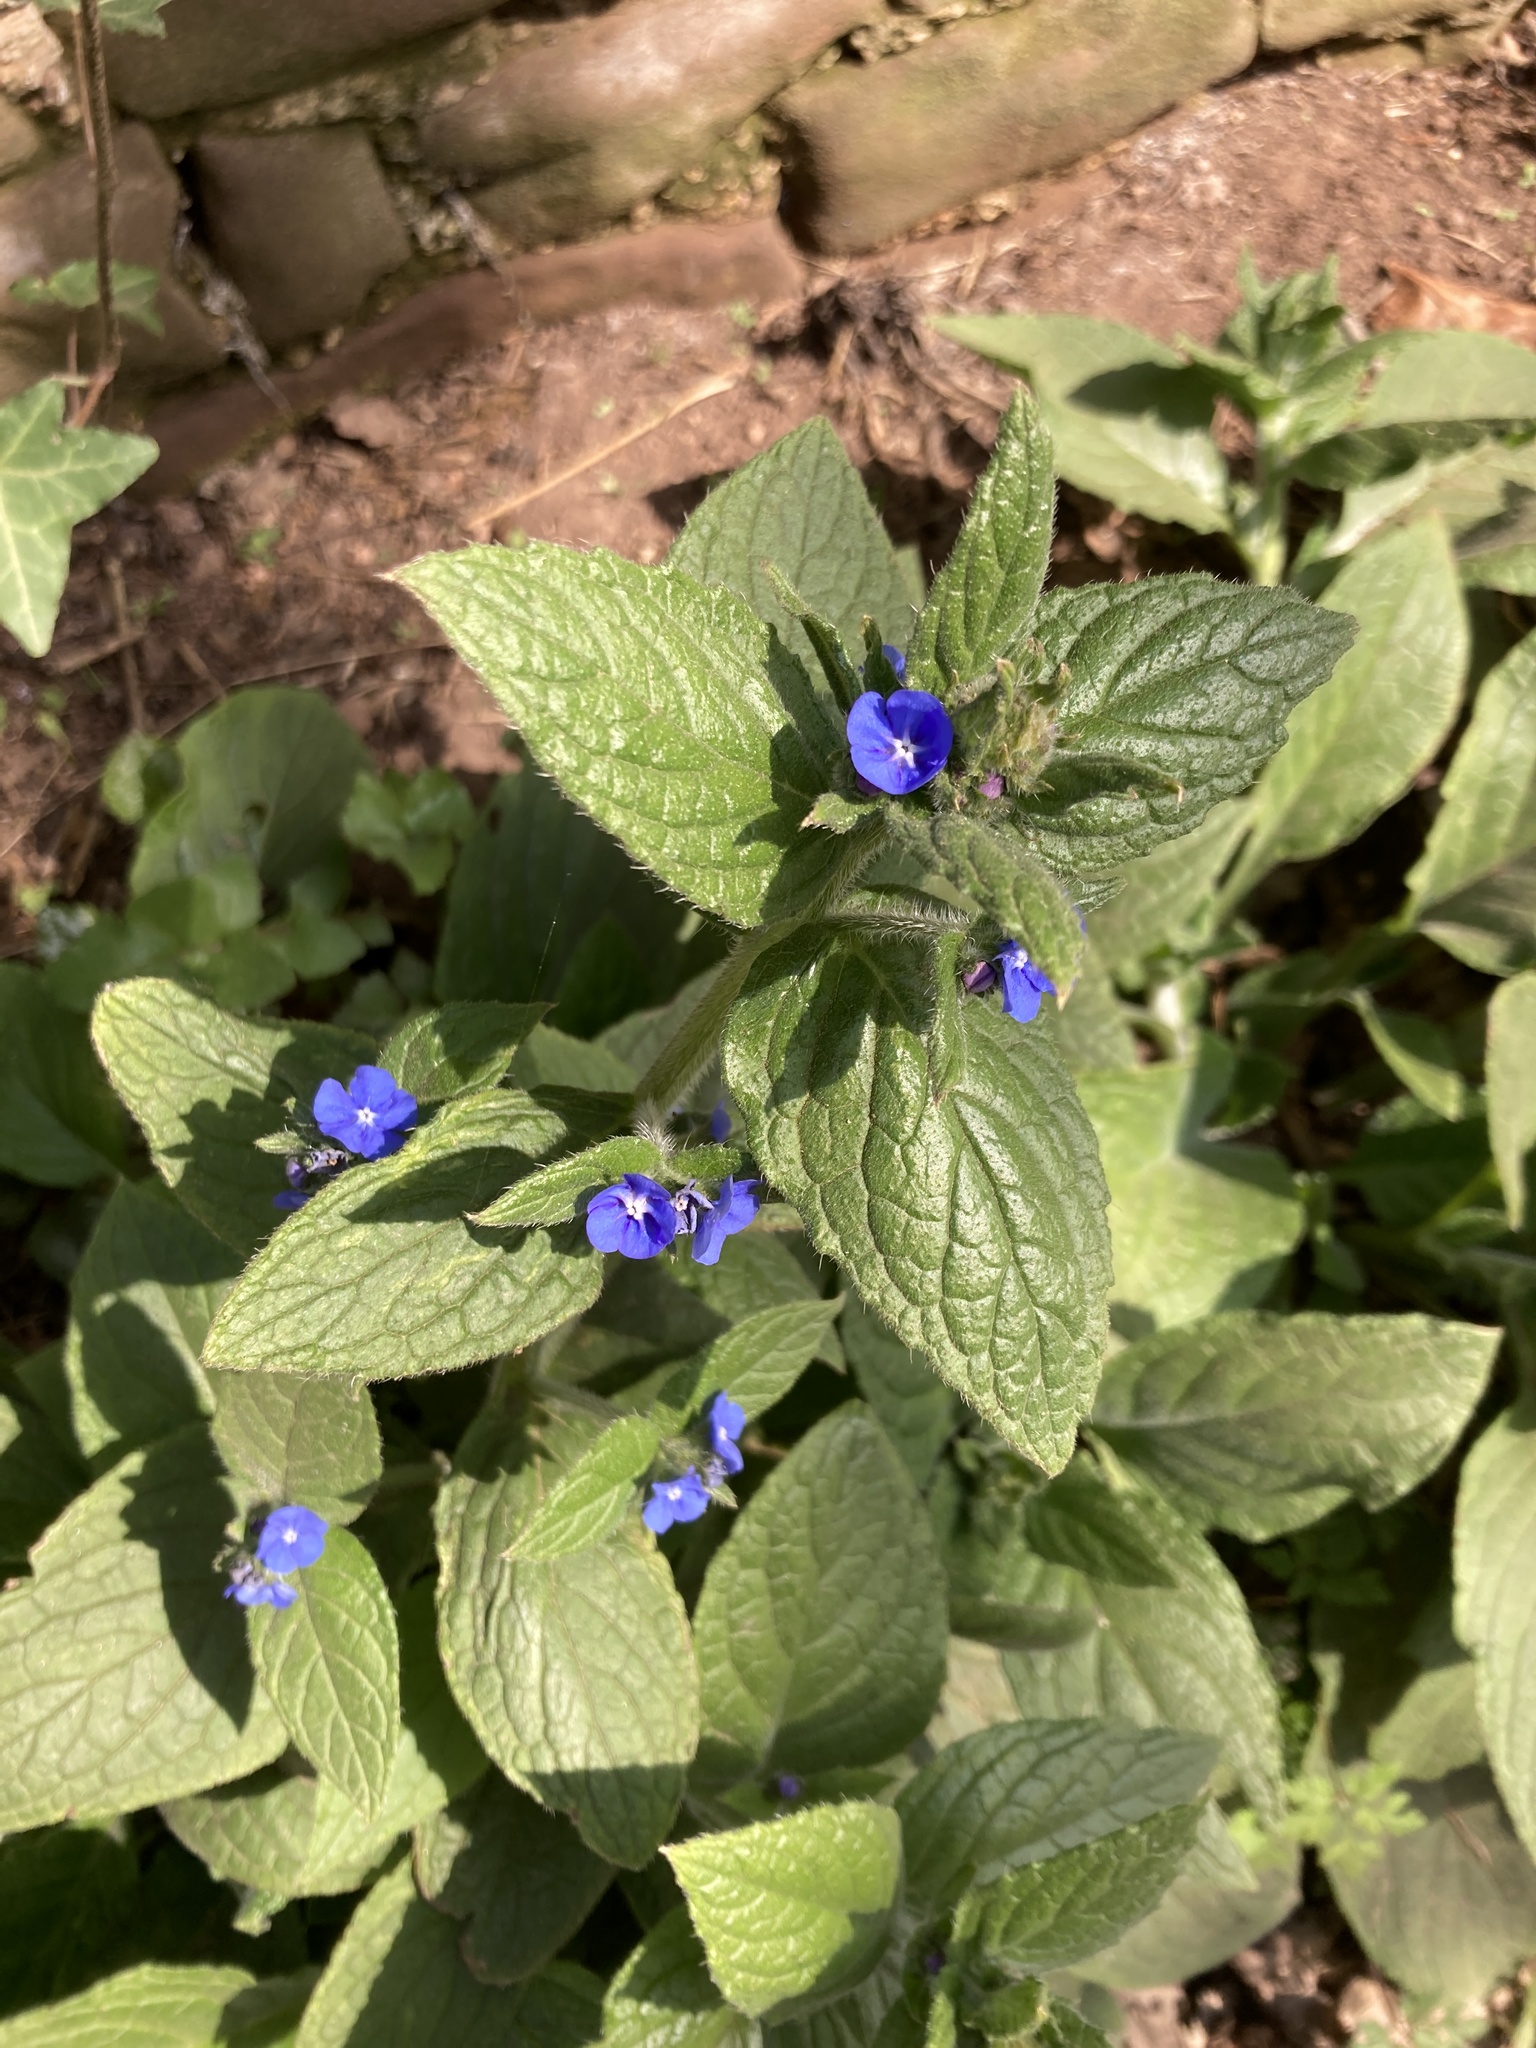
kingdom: Plantae
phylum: Tracheophyta
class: Magnoliopsida
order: Boraginales
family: Boraginaceae
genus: Pentaglottis
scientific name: Pentaglottis sempervirens
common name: Green alkanet
